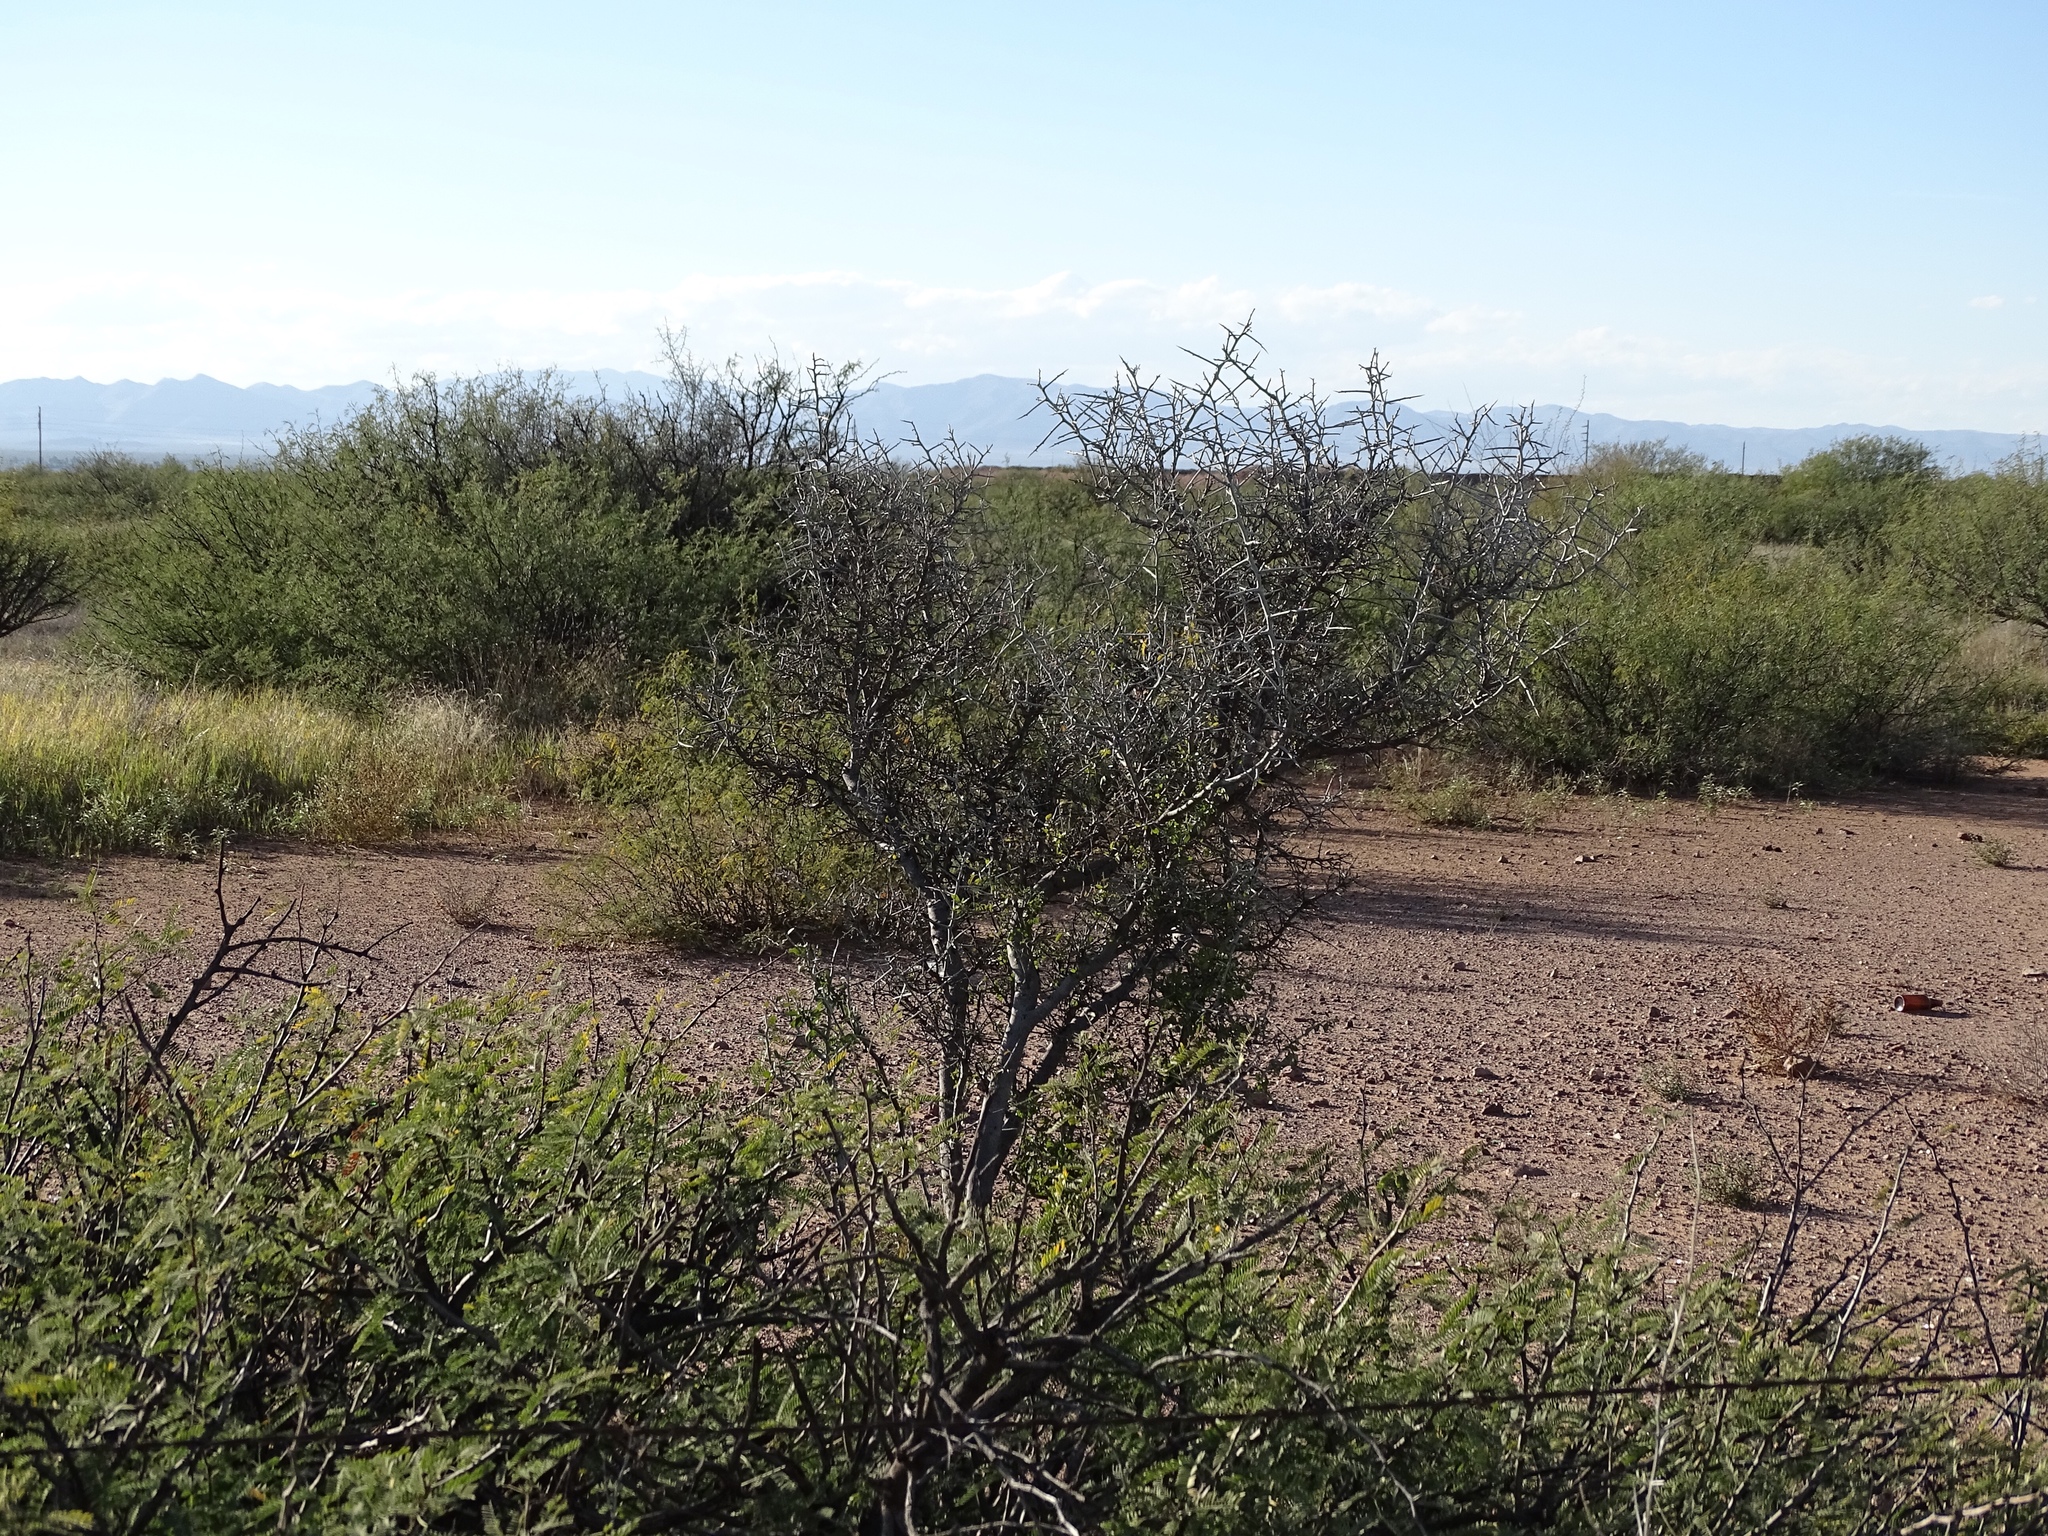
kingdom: Plantae
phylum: Tracheophyta
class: Magnoliopsida
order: Rosales
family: Rhamnaceae
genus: Sarcomphalus
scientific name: Sarcomphalus obtusifolius
